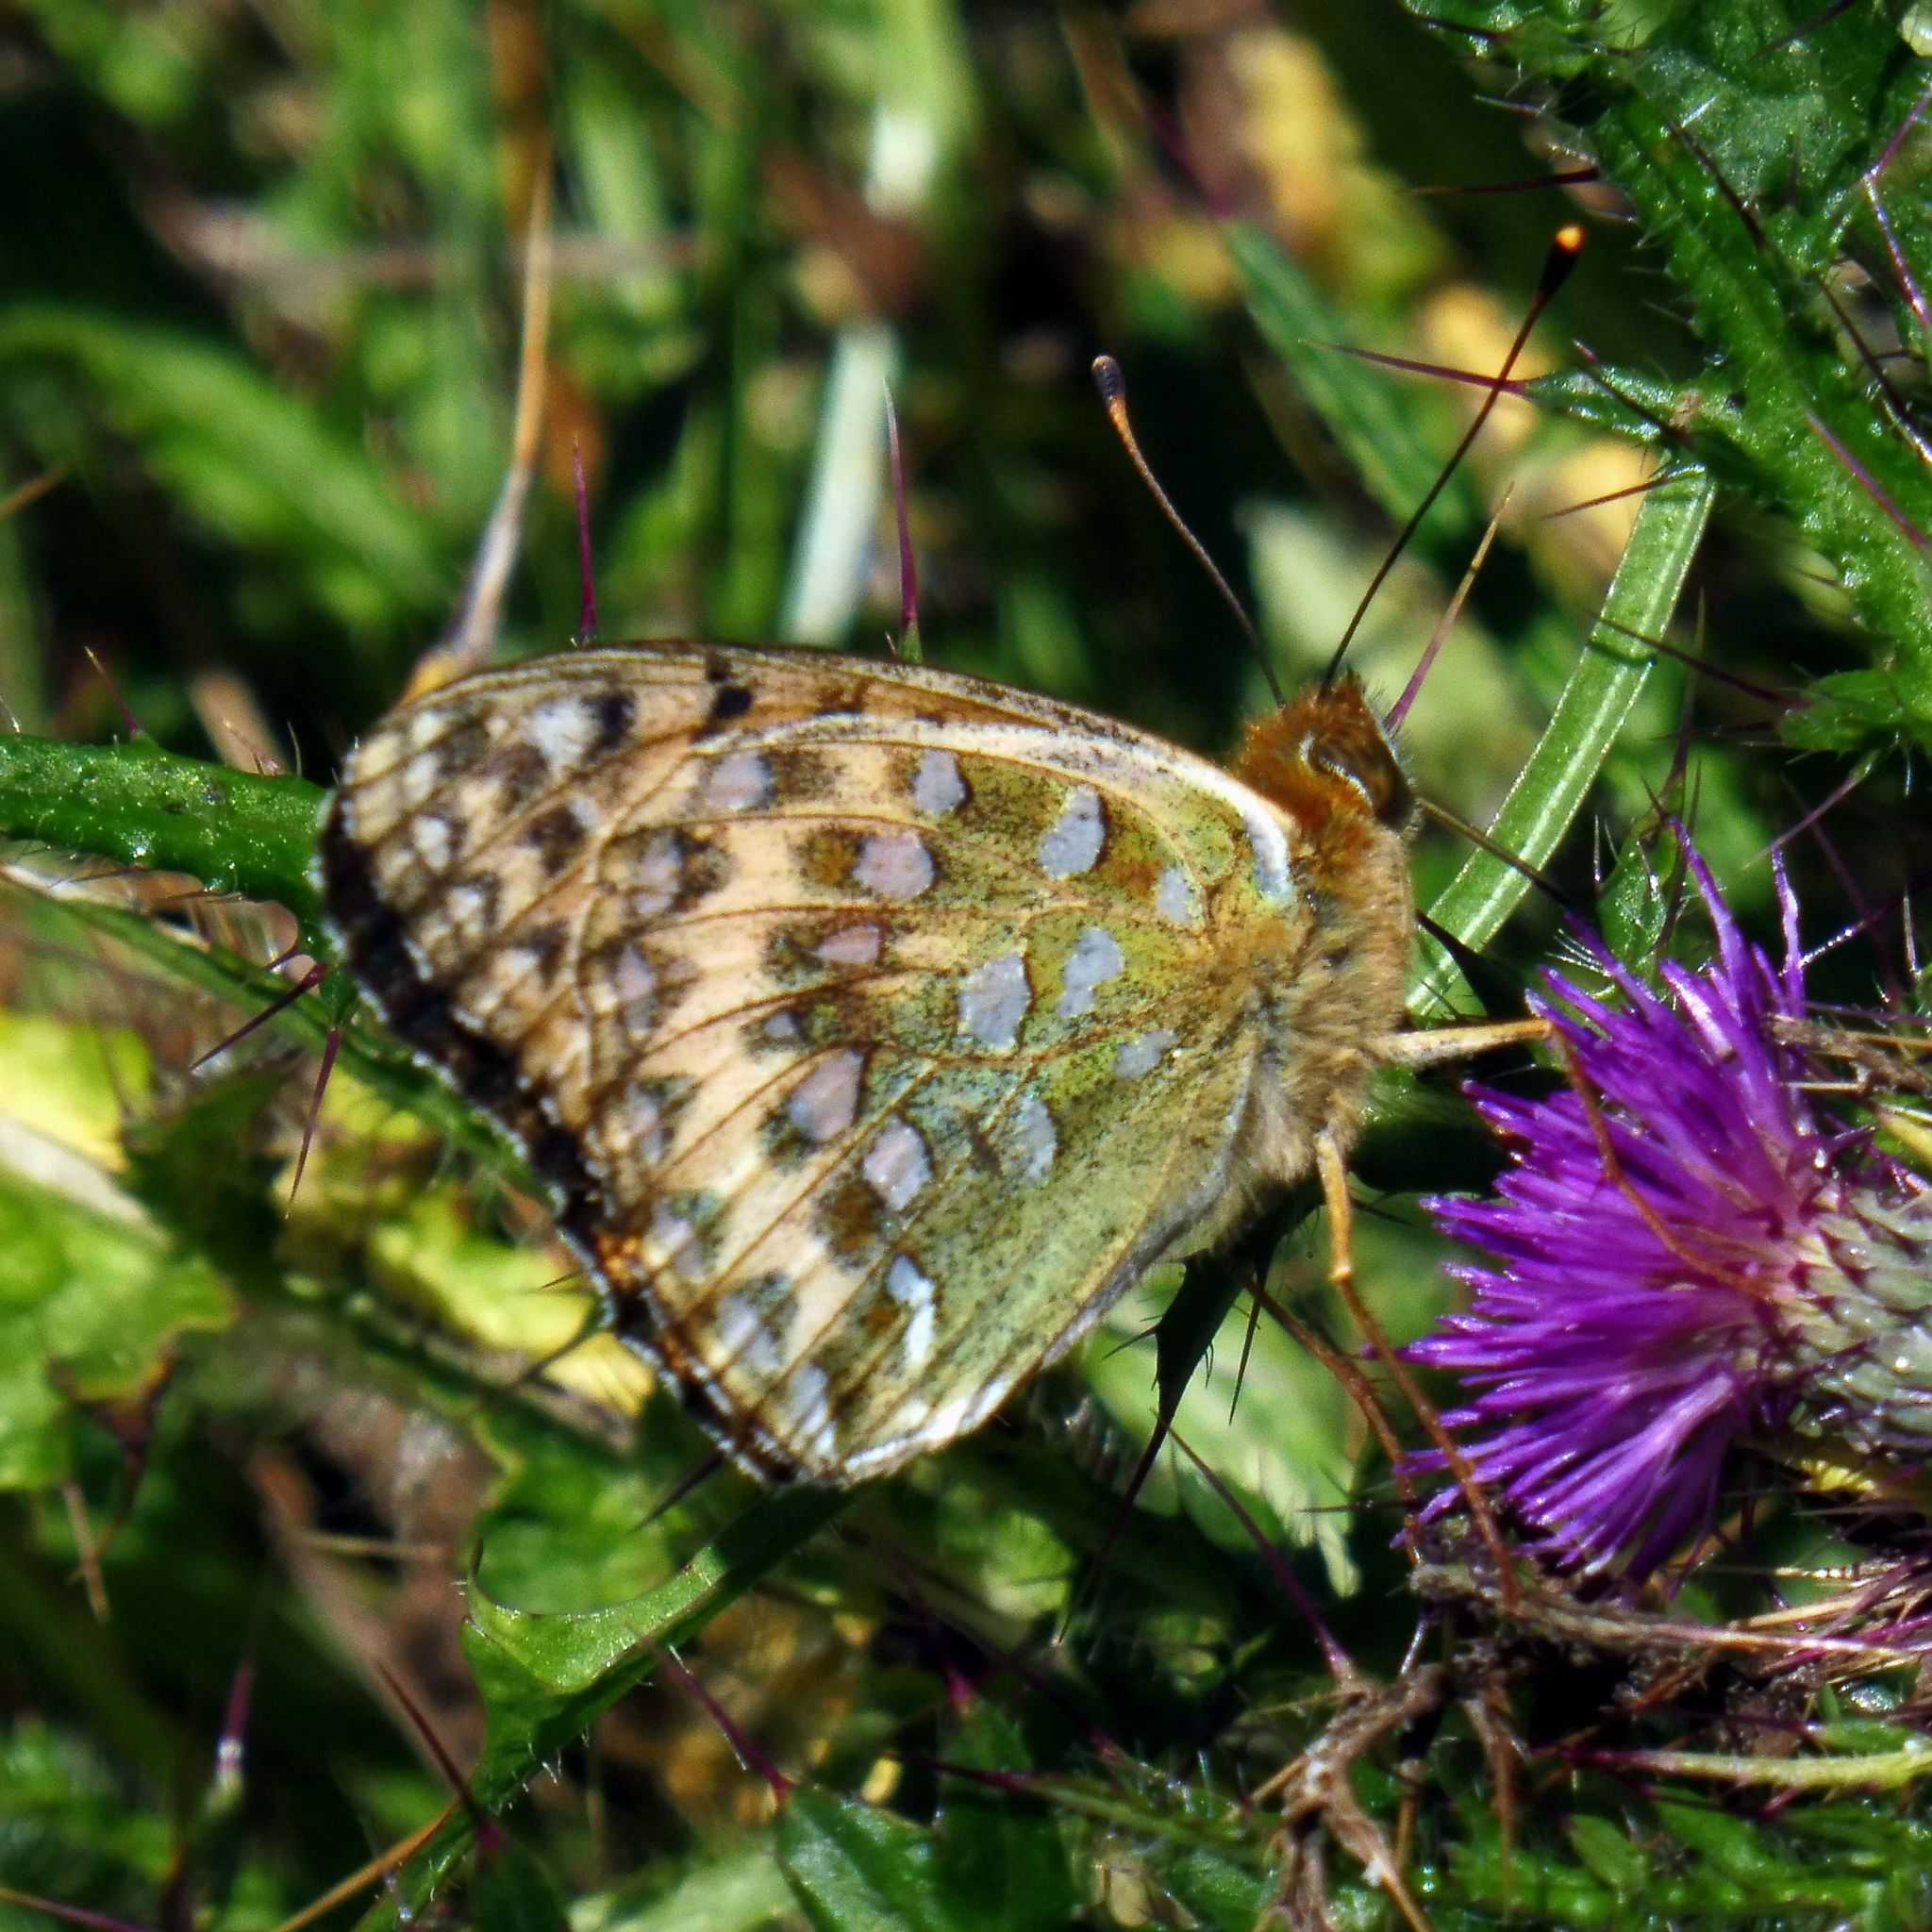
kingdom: Animalia
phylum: Arthropoda
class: Insecta
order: Lepidoptera
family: Nymphalidae
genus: Speyeria
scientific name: Speyeria aglaja
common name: Dark green fritillary
